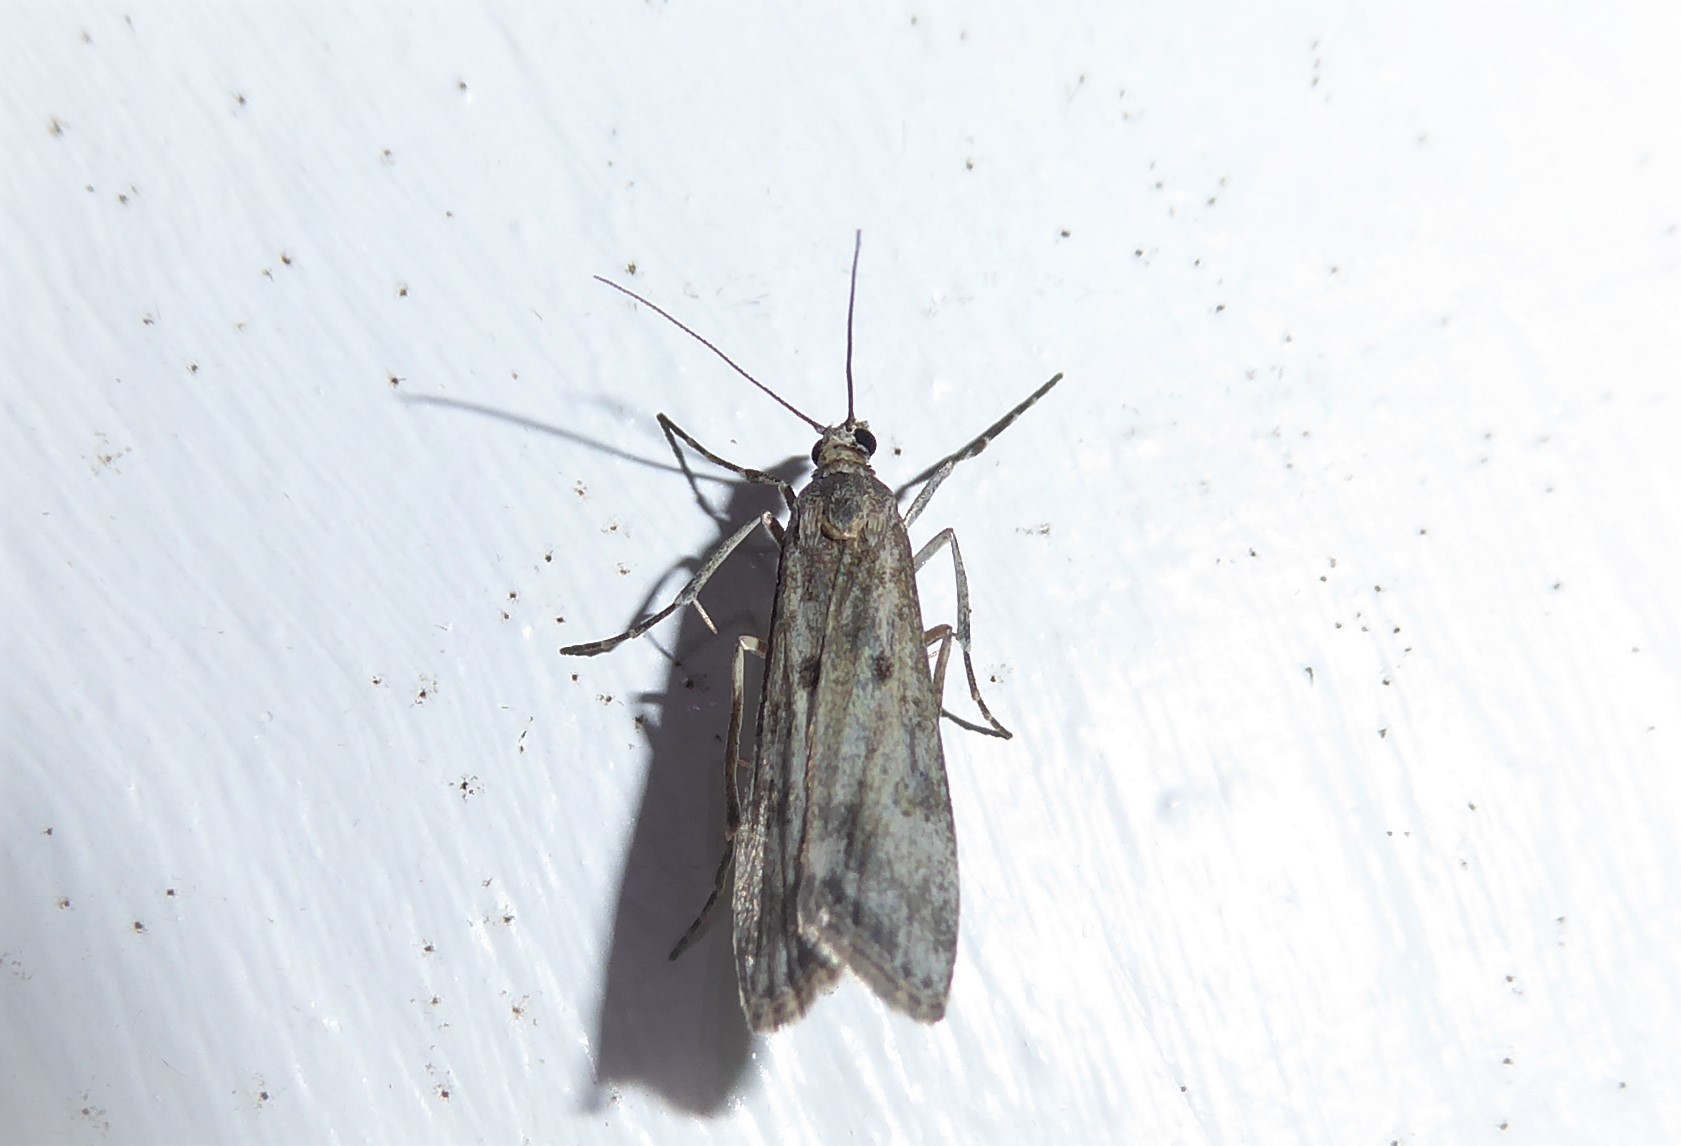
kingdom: Animalia
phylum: Arthropoda
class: Insecta
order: Lepidoptera
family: Crambidae
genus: Eudonia
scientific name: Eudonia leptalea
